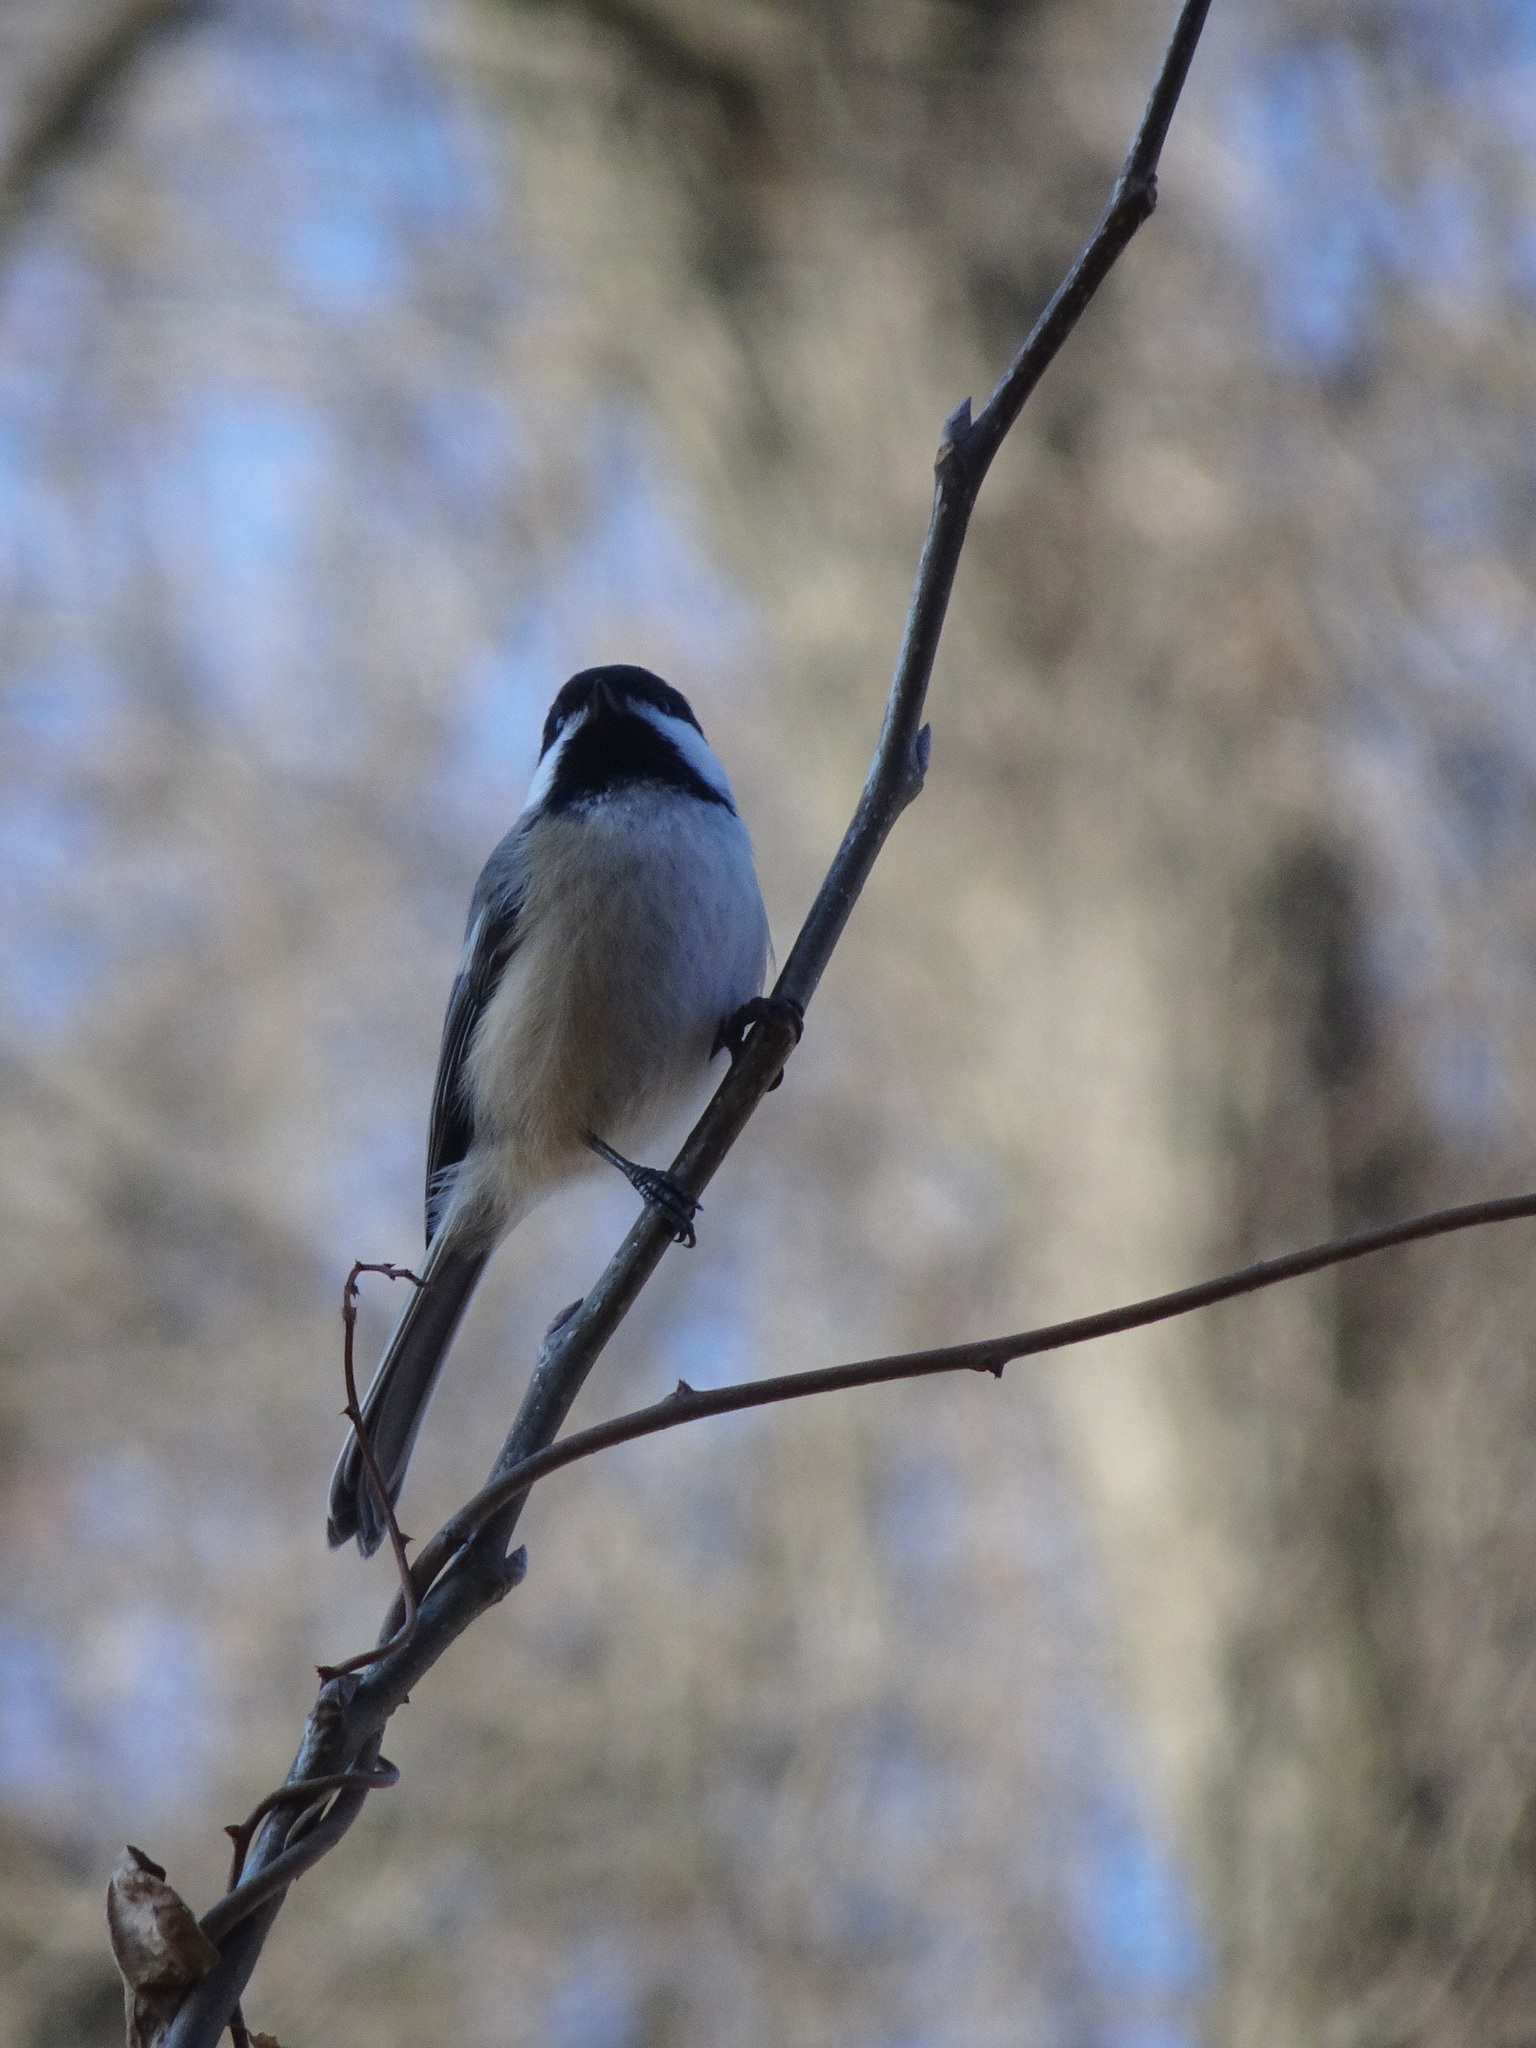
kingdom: Animalia
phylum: Chordata
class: Aves
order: Passeriformes
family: Paridae
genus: Poecile
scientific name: Poecile atricapillus
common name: Black-capped chickadee
